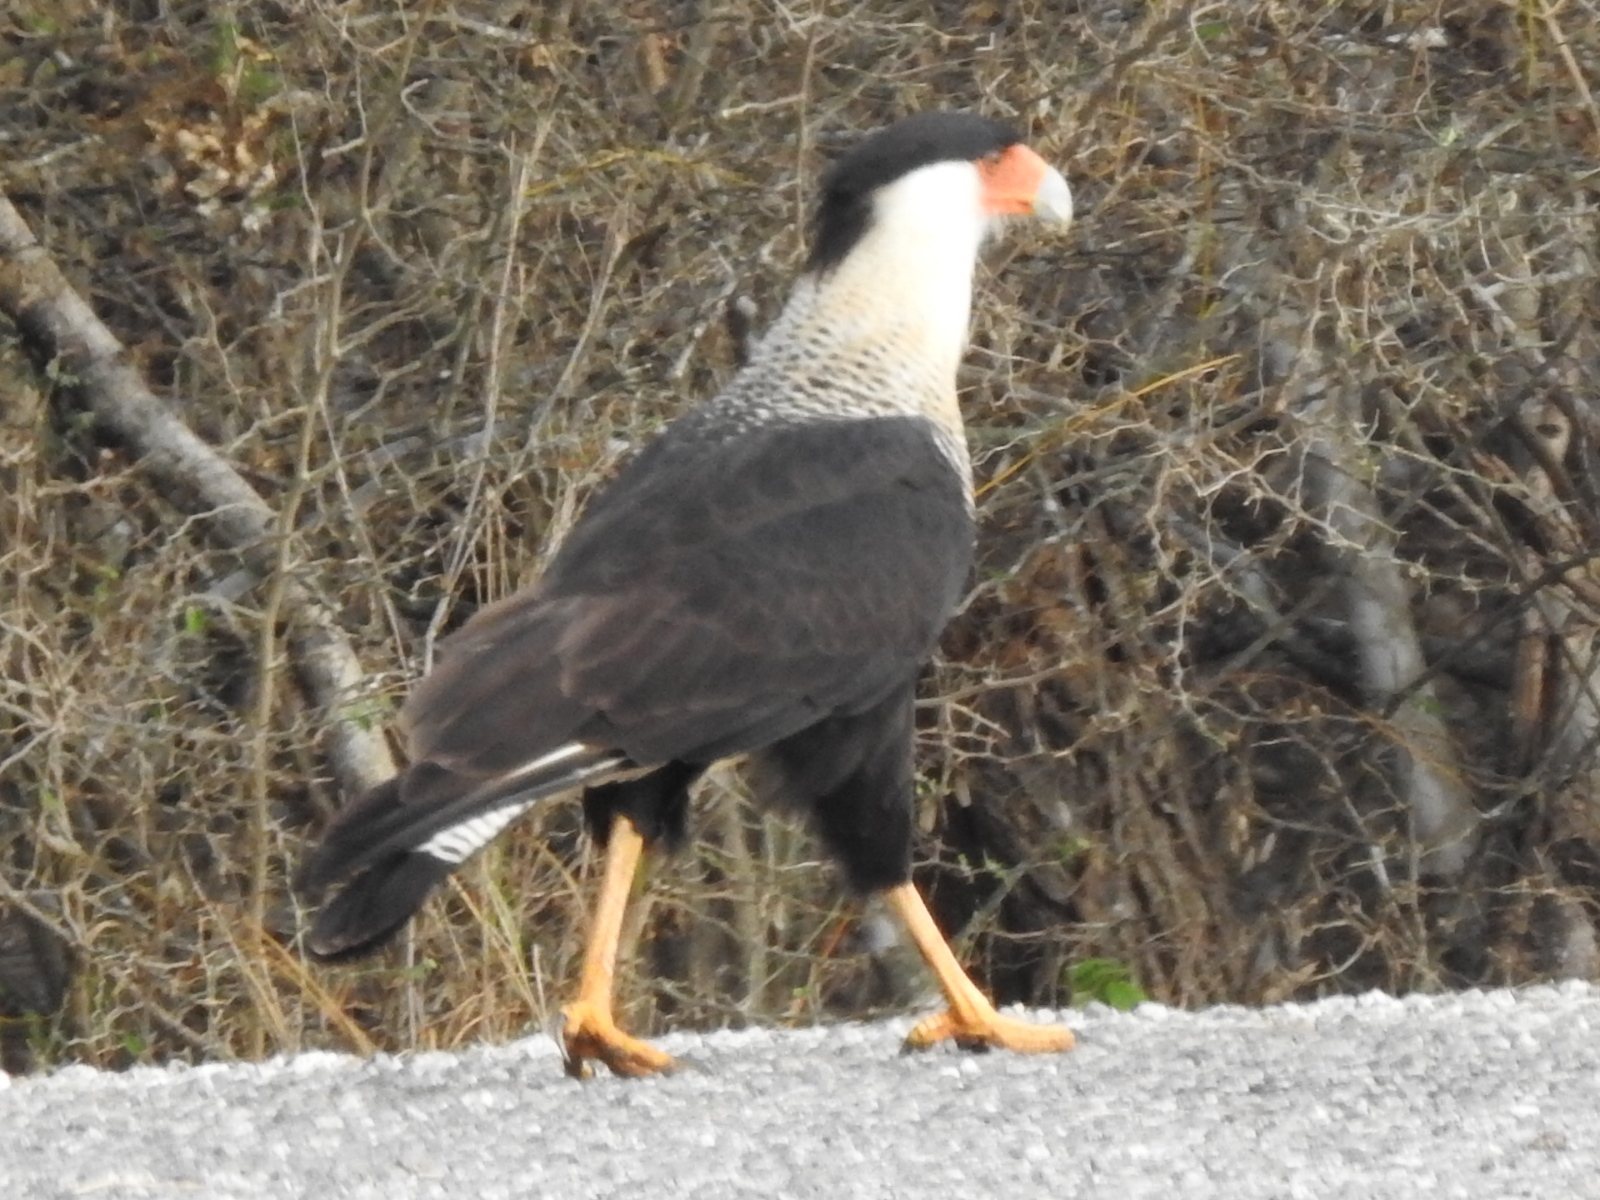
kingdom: Animalia
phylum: Chordata
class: Aves
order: Falconiformes
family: Falconidae
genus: Caracara
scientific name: Caracara plancus
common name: Southern caracara
